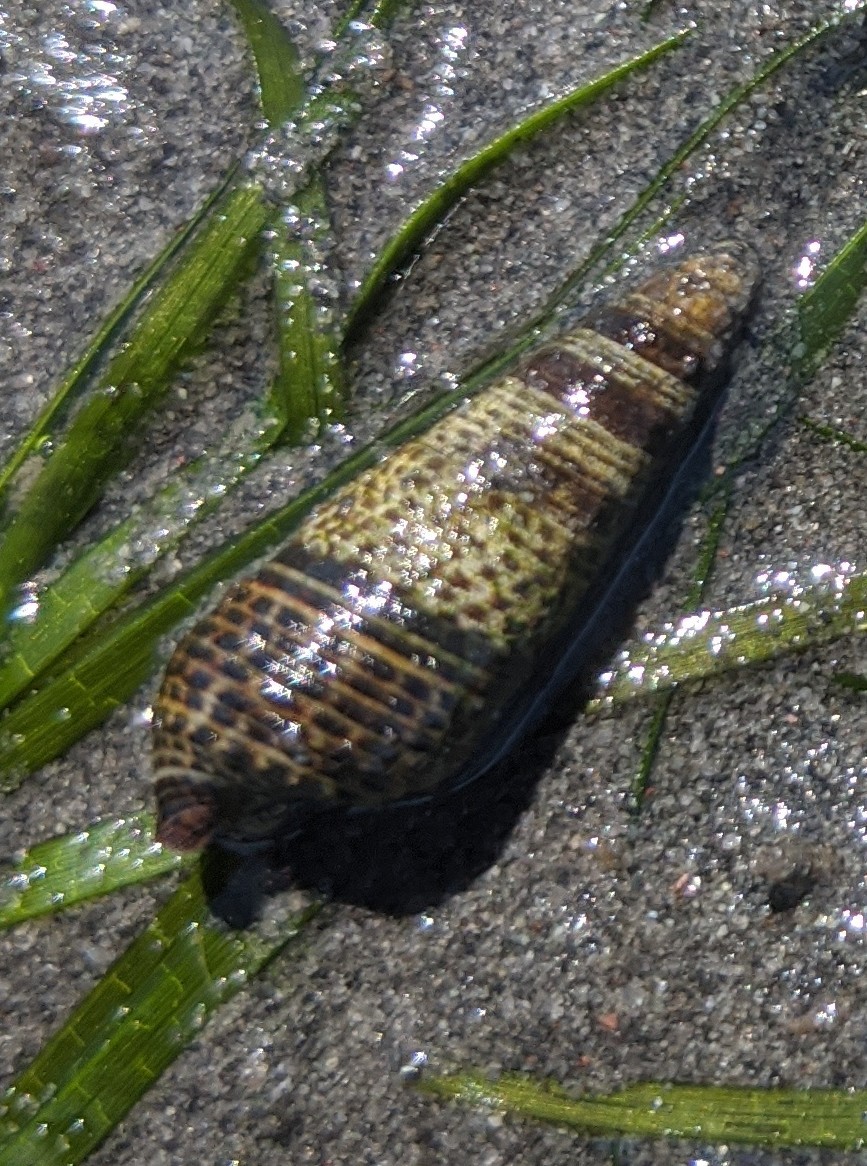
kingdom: Animalia
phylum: Mollusca
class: Gastropoda
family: Batillariidae
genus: Batillaria
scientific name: Batillaria attramentaria
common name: Japanese false cerith
